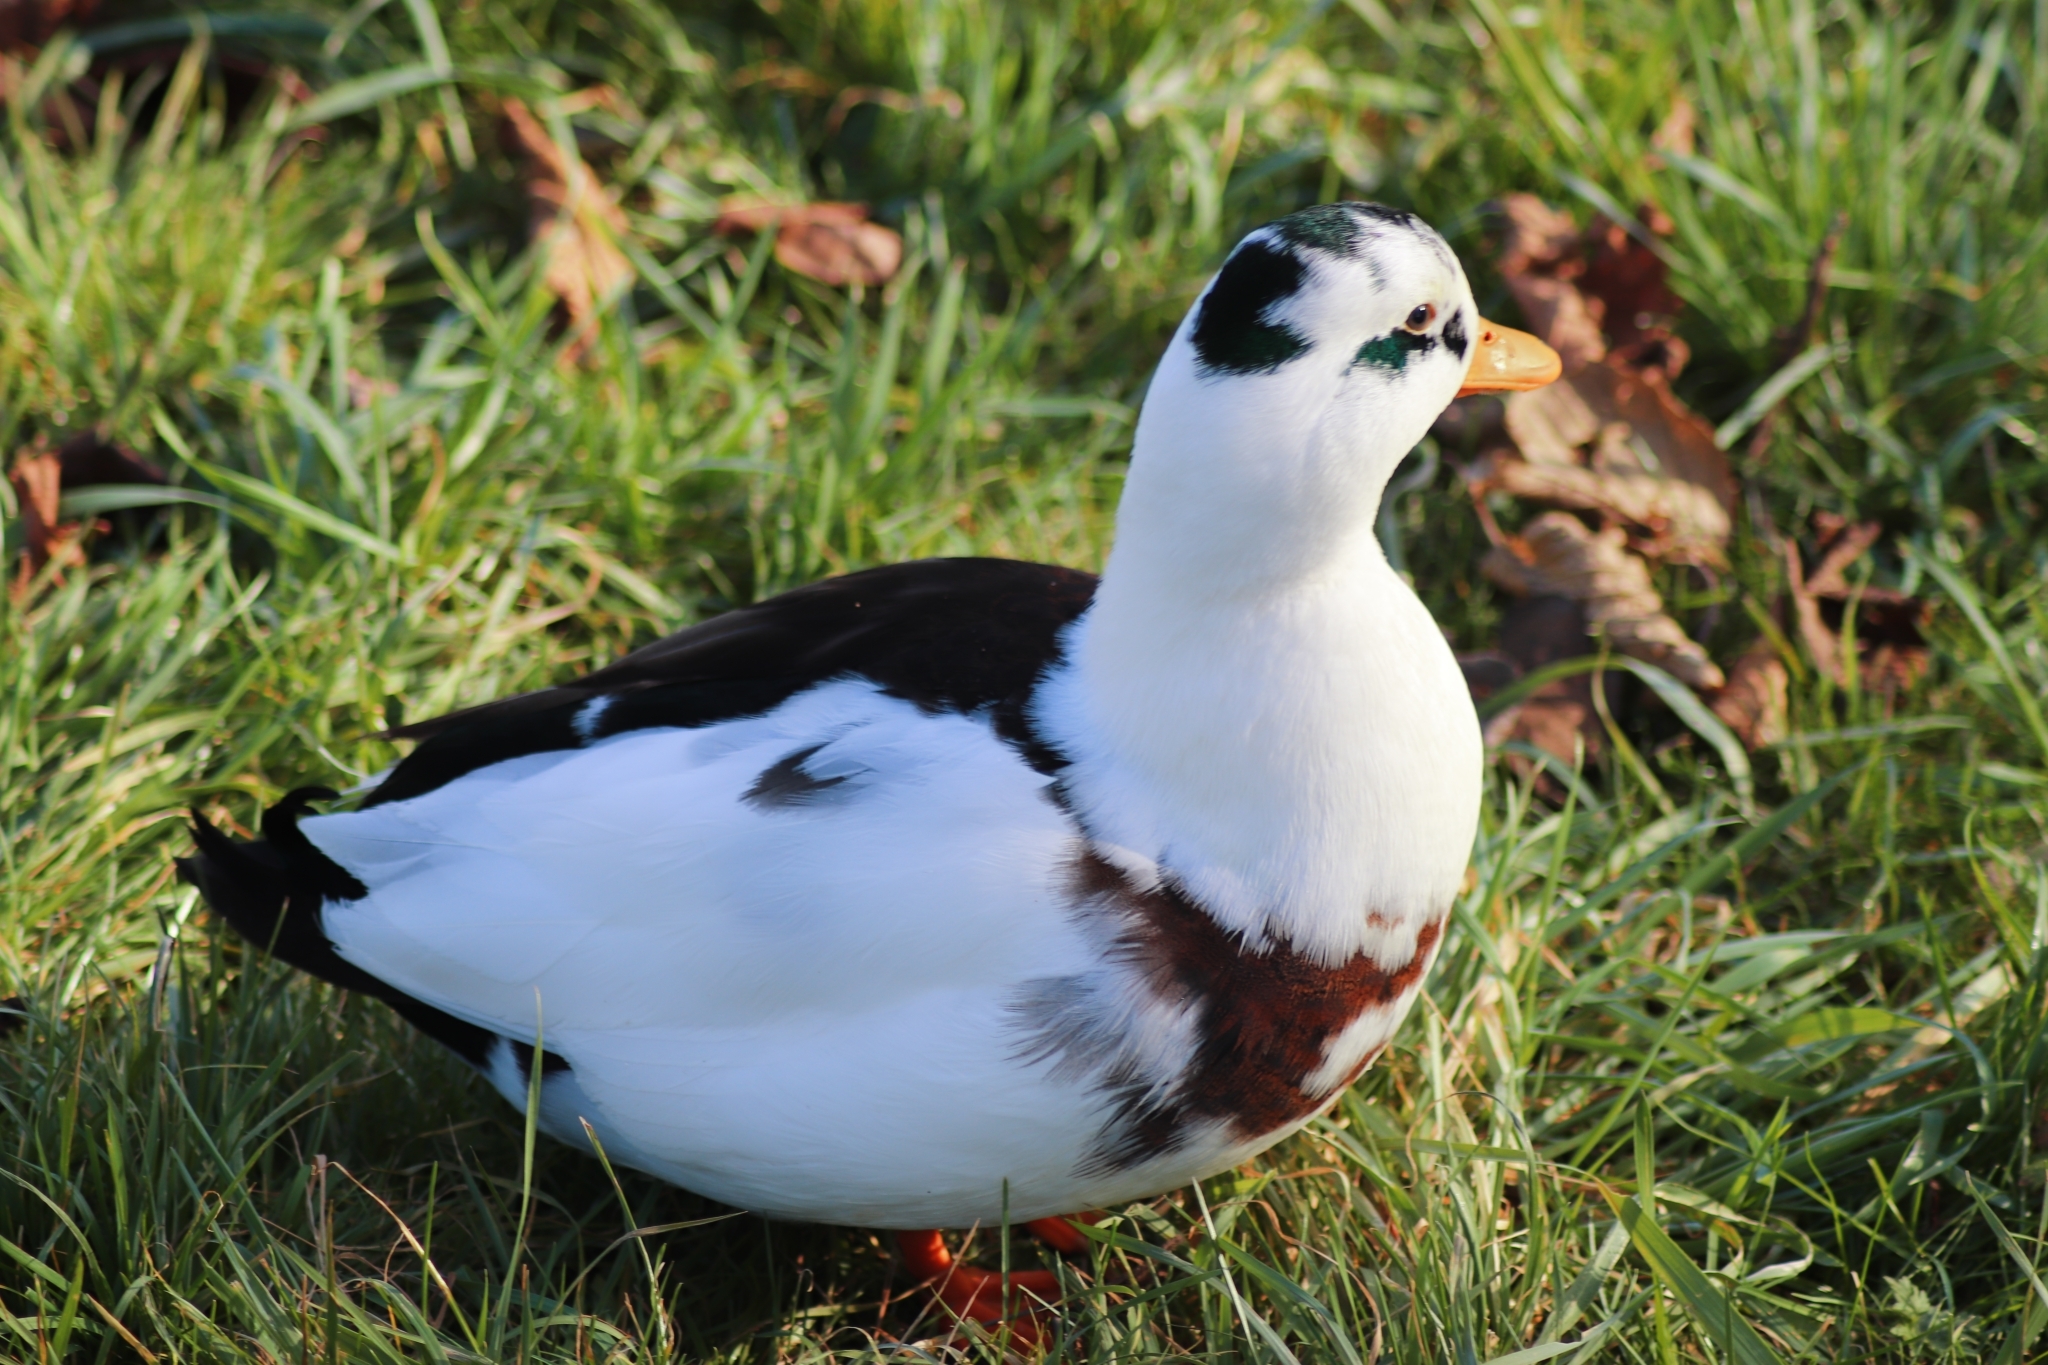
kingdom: Animalia
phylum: Chordata
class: Aves
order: Anseriformes
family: Anatidae
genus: Anas
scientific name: Anas platyrhynchos
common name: Mallard
